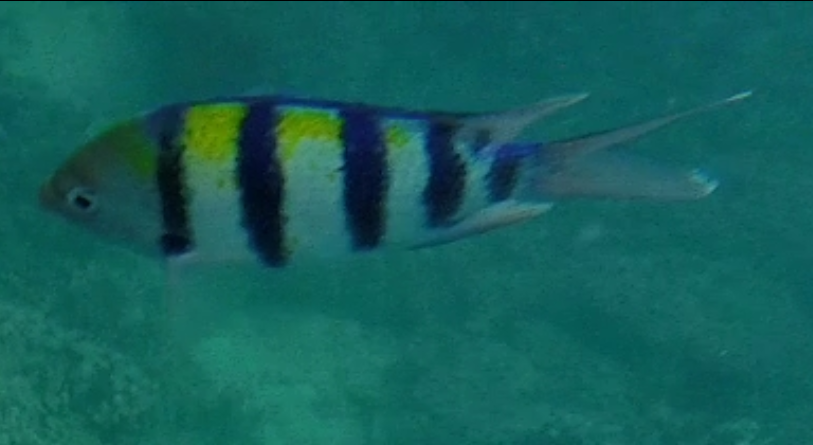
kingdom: Animalia
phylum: Chordata
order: Perciformes
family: Pomacentridae
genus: Abudefduf
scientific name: Abudefduf vaigiensis
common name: Indo-pacific sergeant
